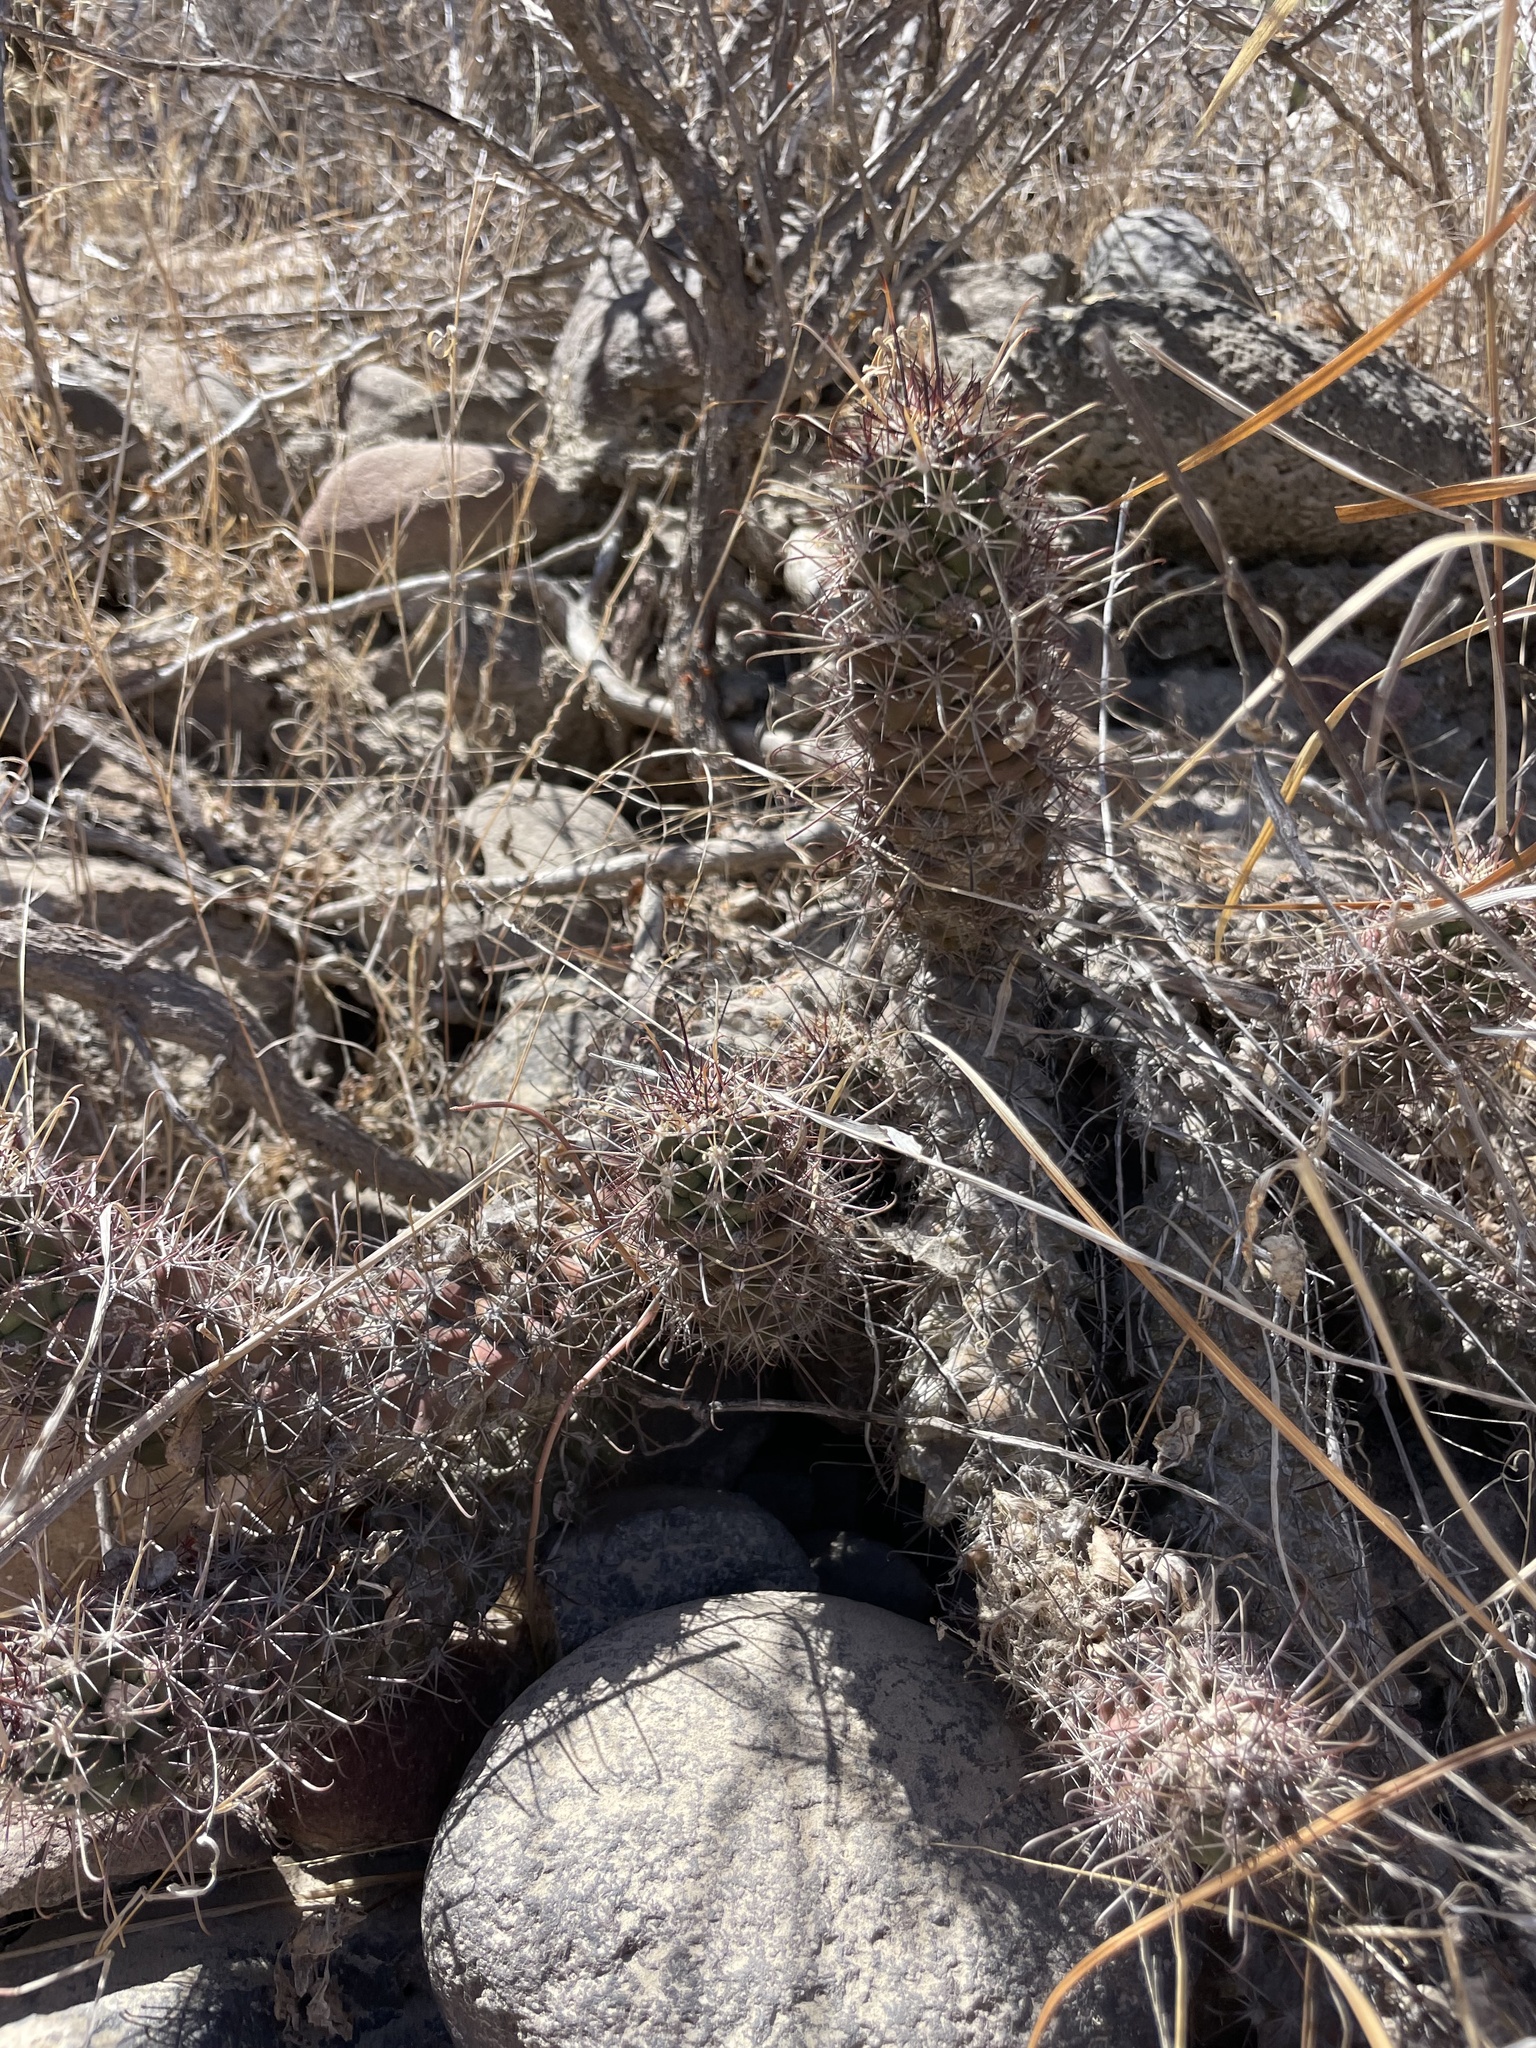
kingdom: Plantae
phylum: Tracheophyta
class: Magnoliopsida
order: Caryophyllales
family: Cactaceae
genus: Cochemiea
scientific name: Cochemiea poselgeri
